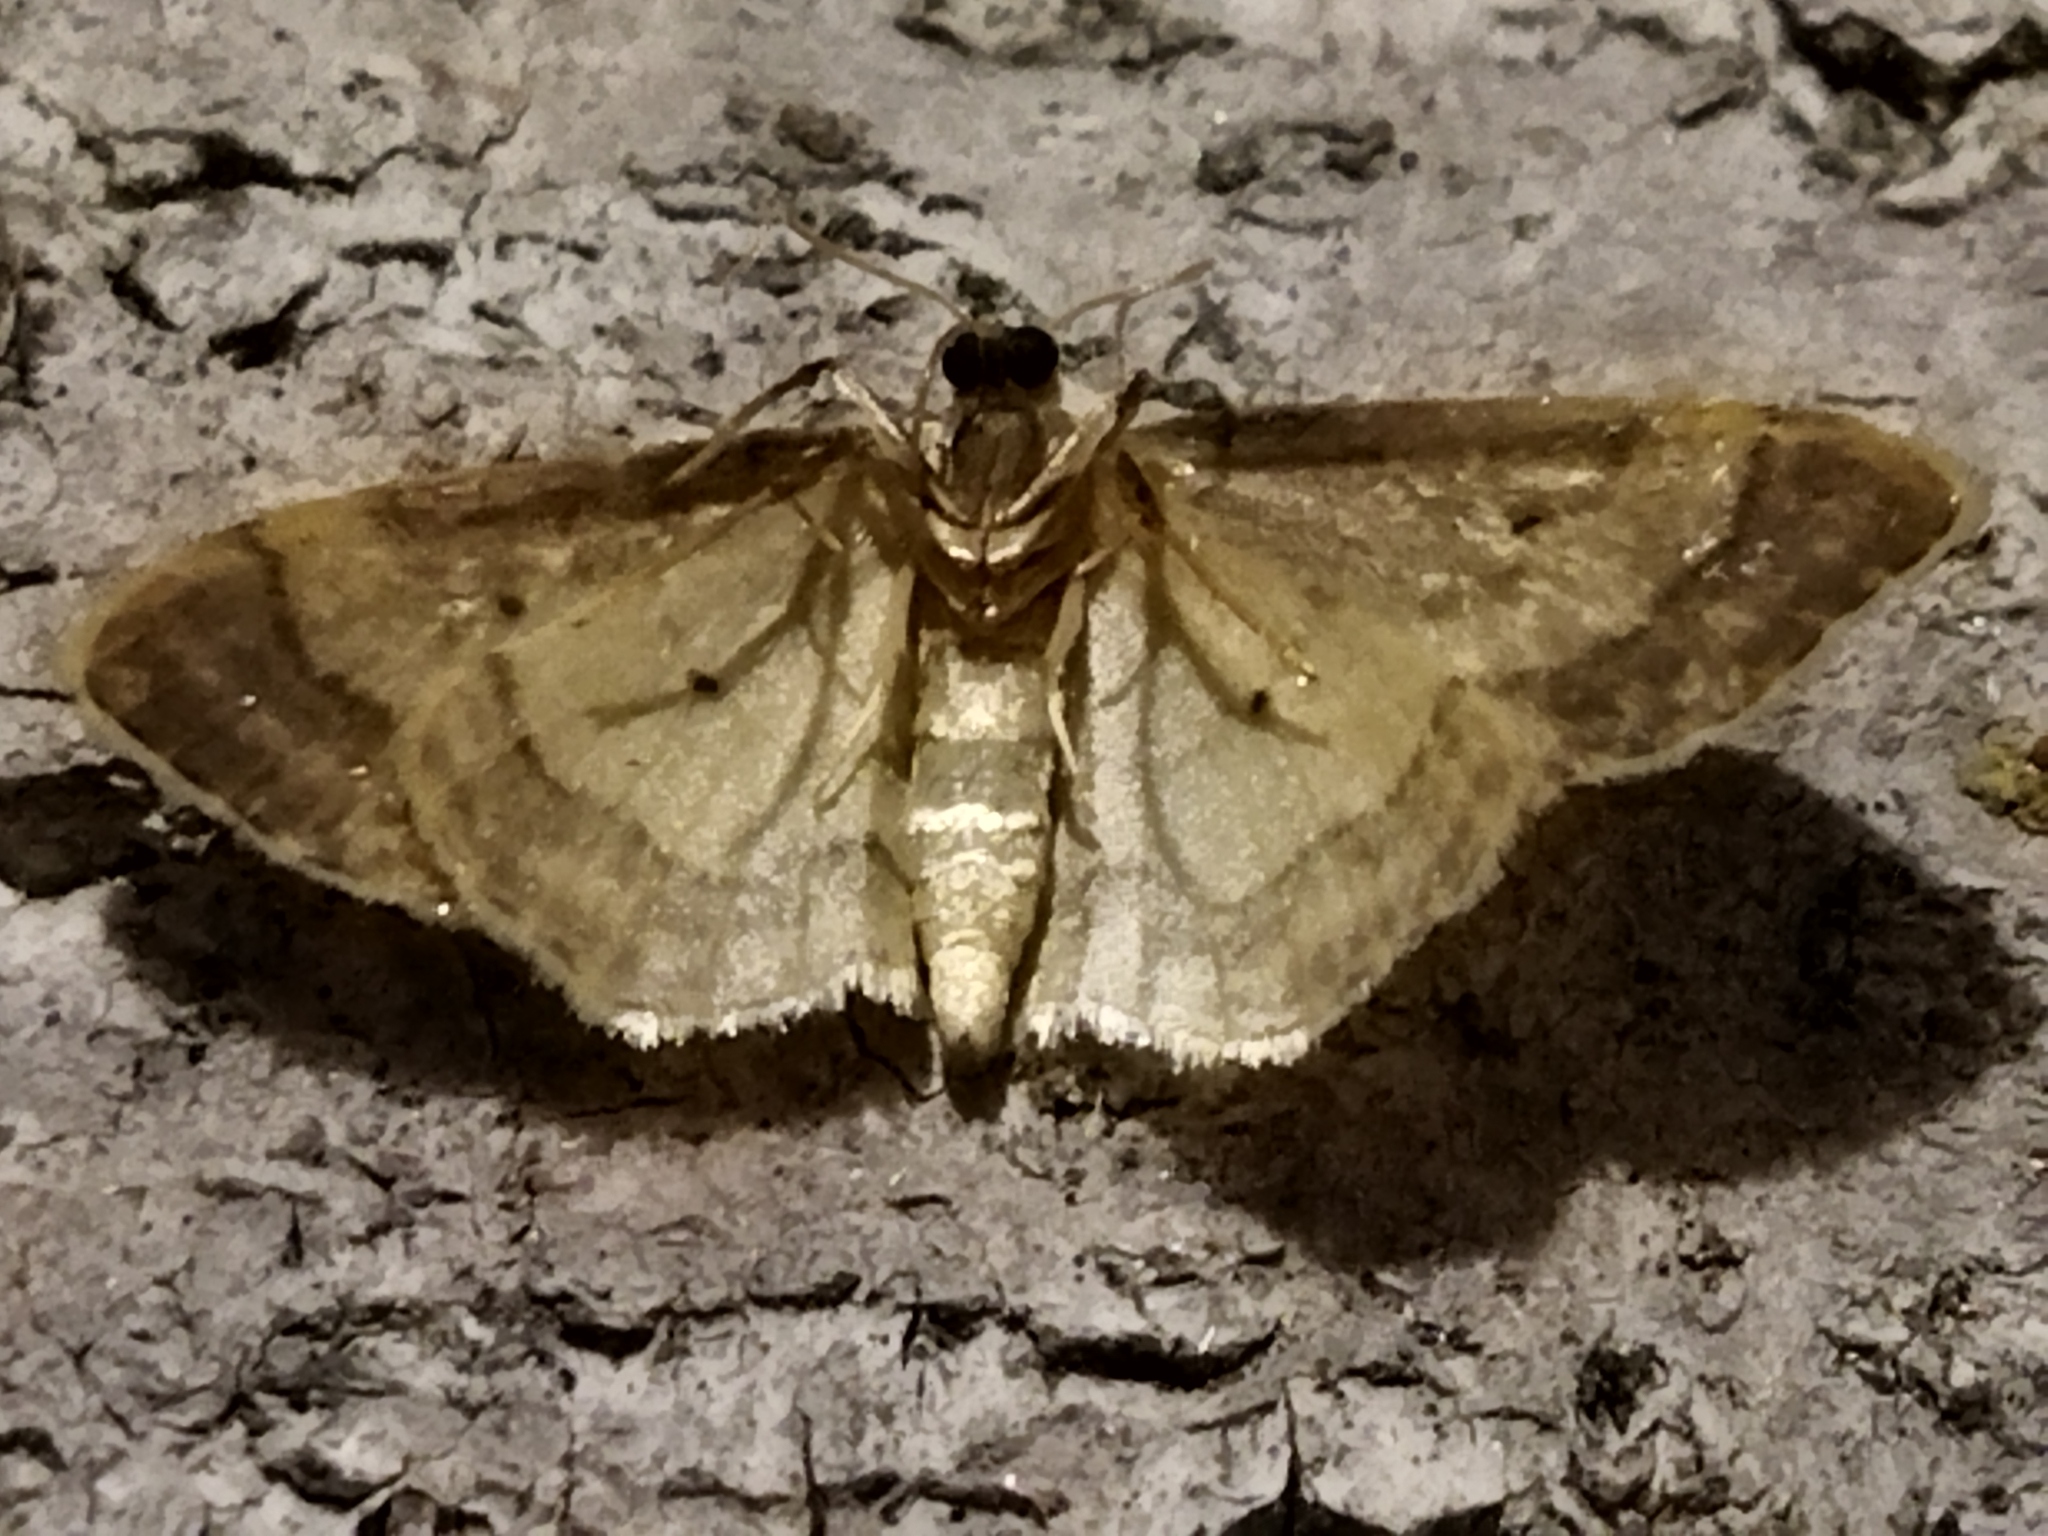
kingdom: Animalia
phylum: Arthropoda
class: Insecta
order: Lepidoptera
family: Geometridae
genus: Idaea
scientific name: Idaea politaria
